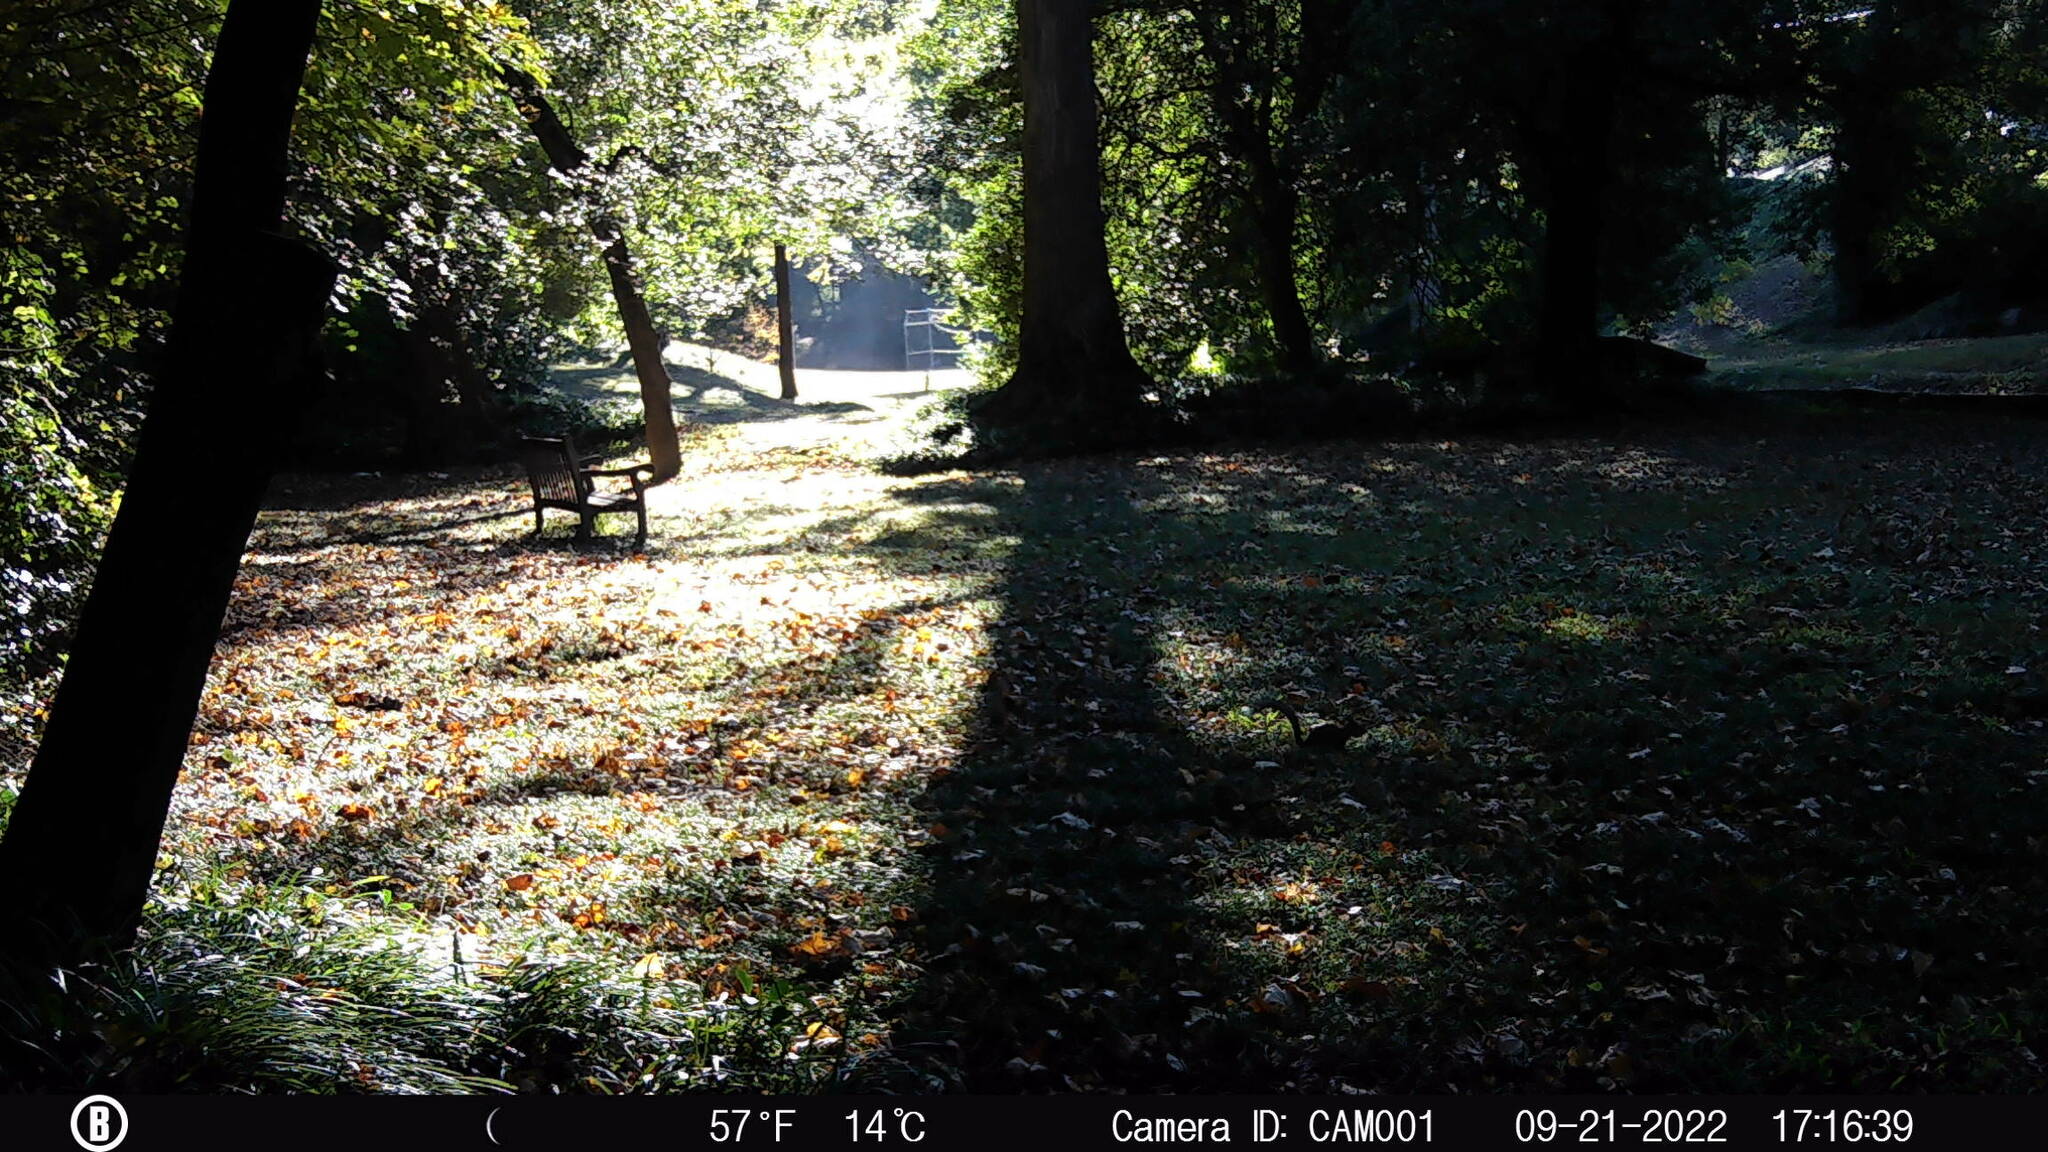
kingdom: Animalia
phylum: Chordata
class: Mammalia
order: Rodentia
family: Sciuridae
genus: Sciurus
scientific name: Sciurus carolinensis
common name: Eastern gray squirrel
